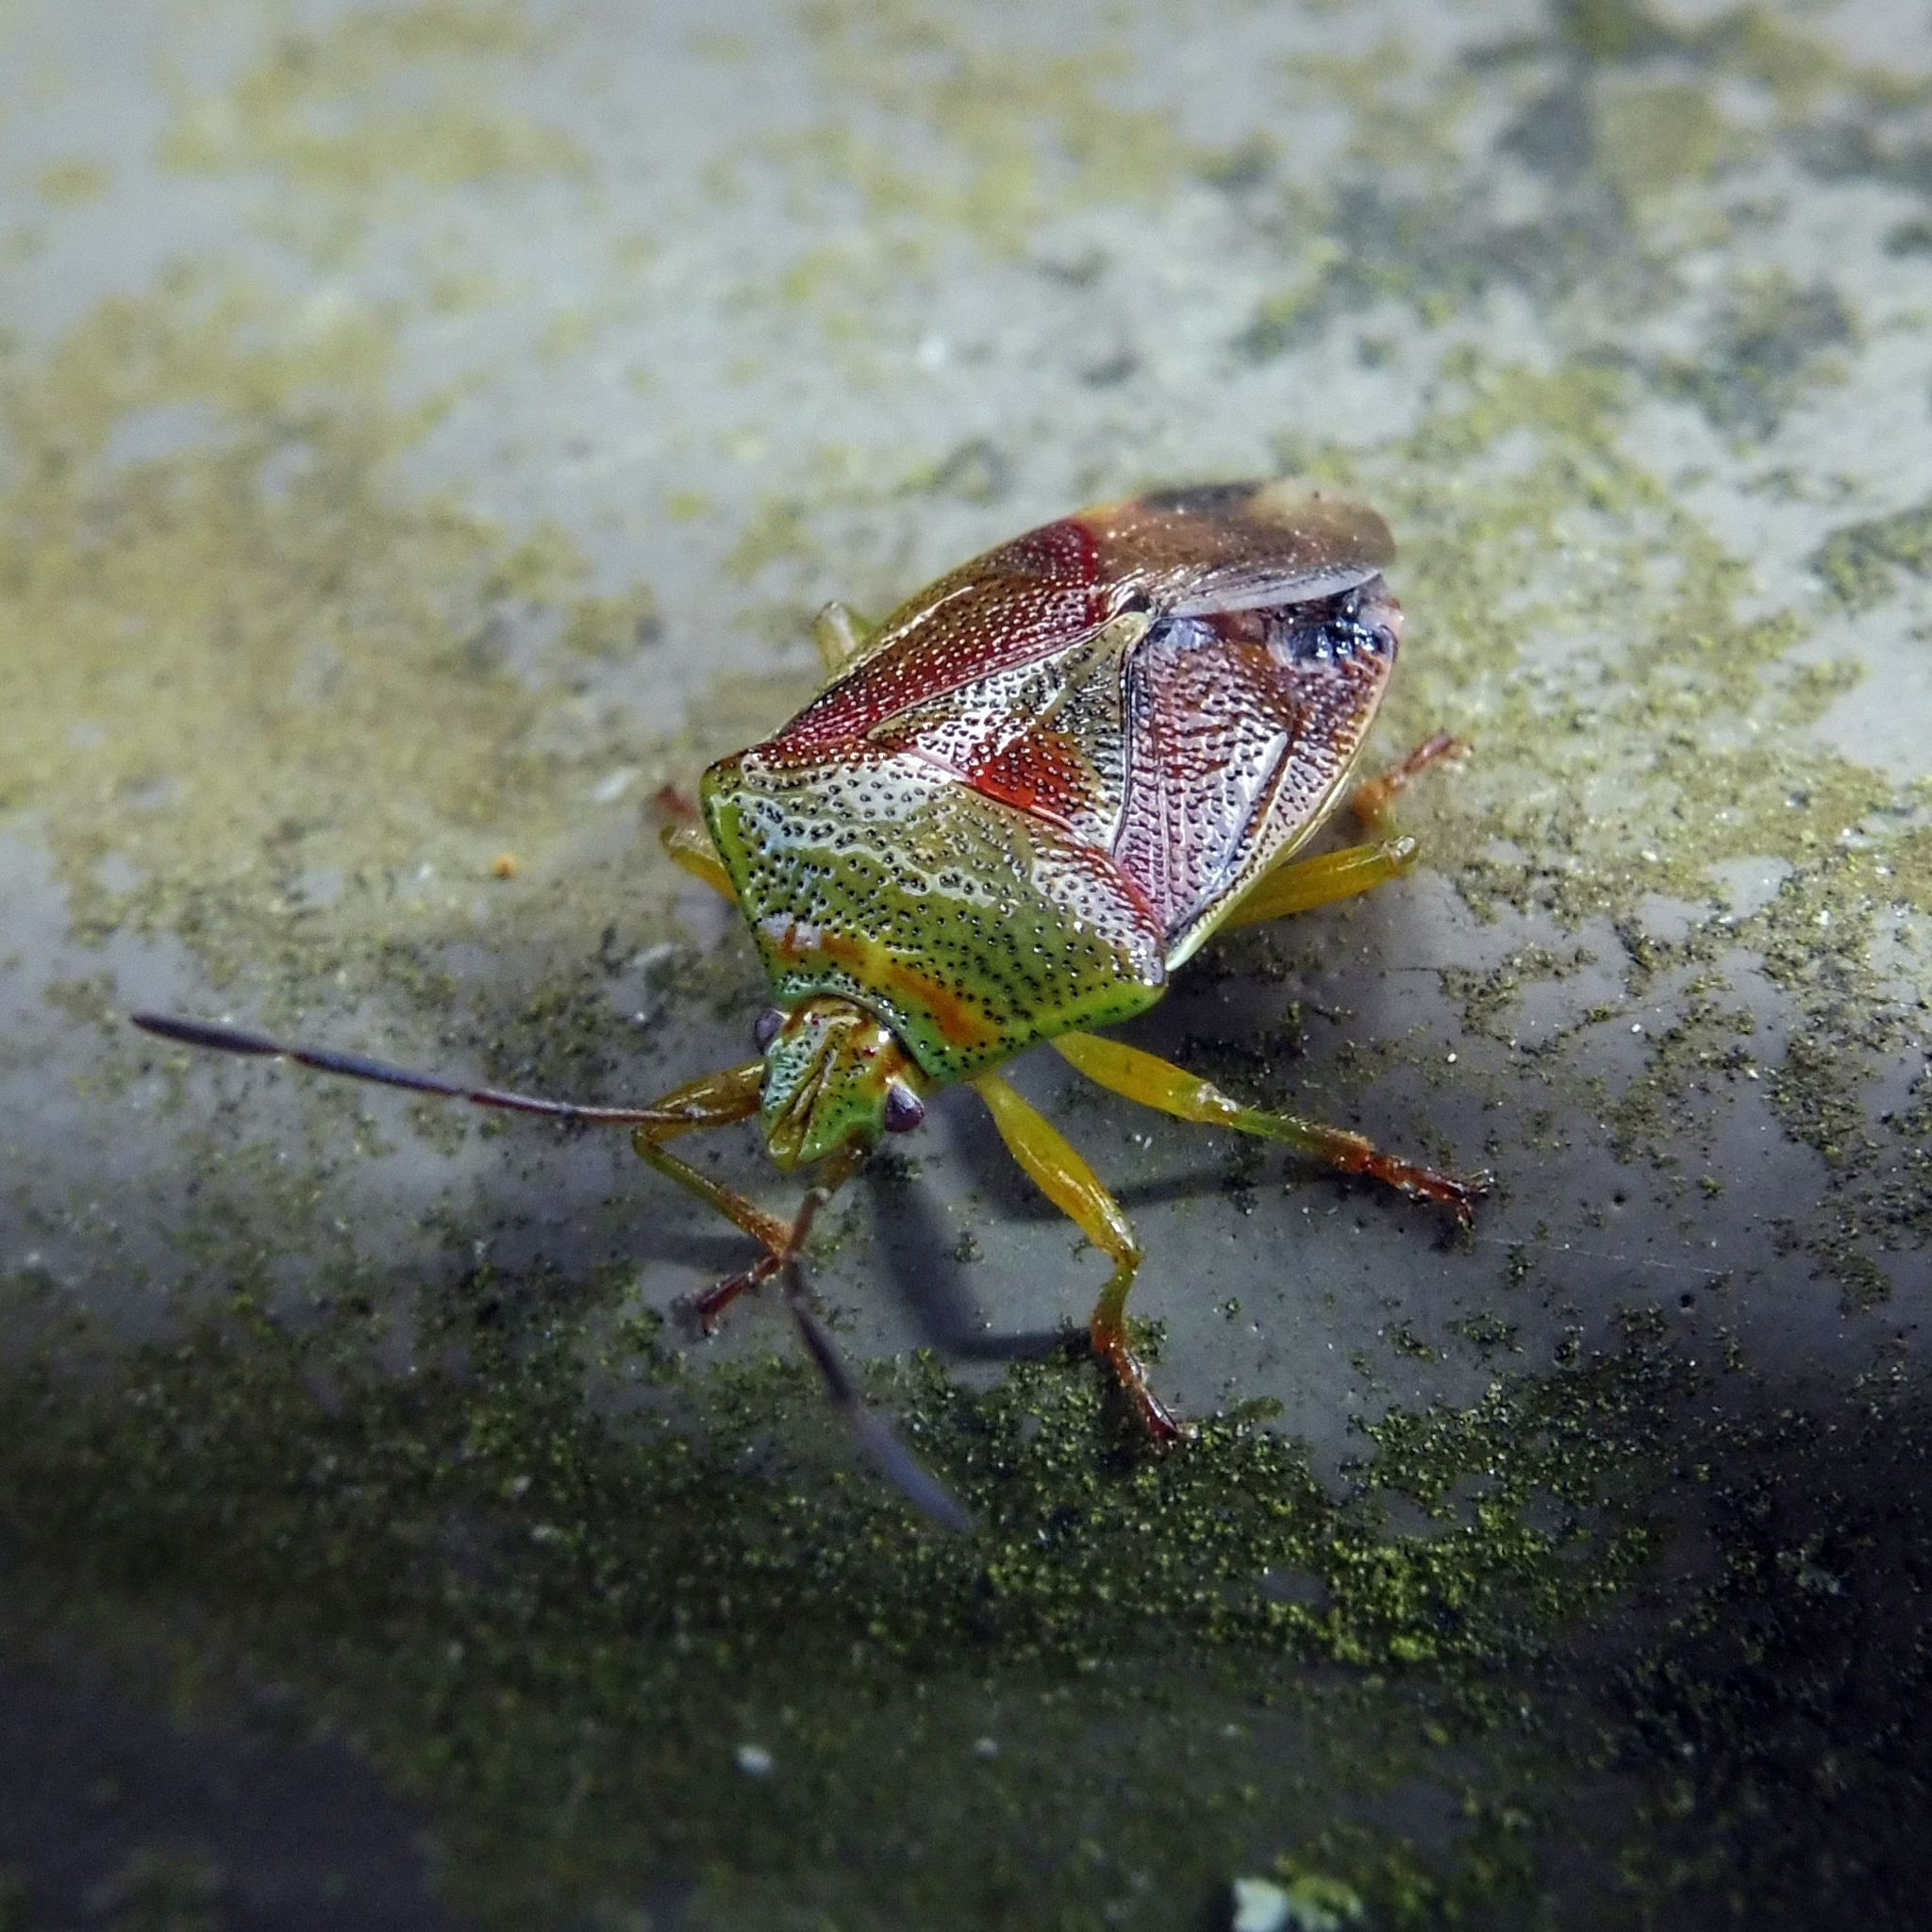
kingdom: Animalia
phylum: Arthropoda
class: Insecta
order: Hemiptera
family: Acanthosomatidae
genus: Elasmostethus
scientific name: Elasmostethus interstinctus
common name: Birch shieldbug
